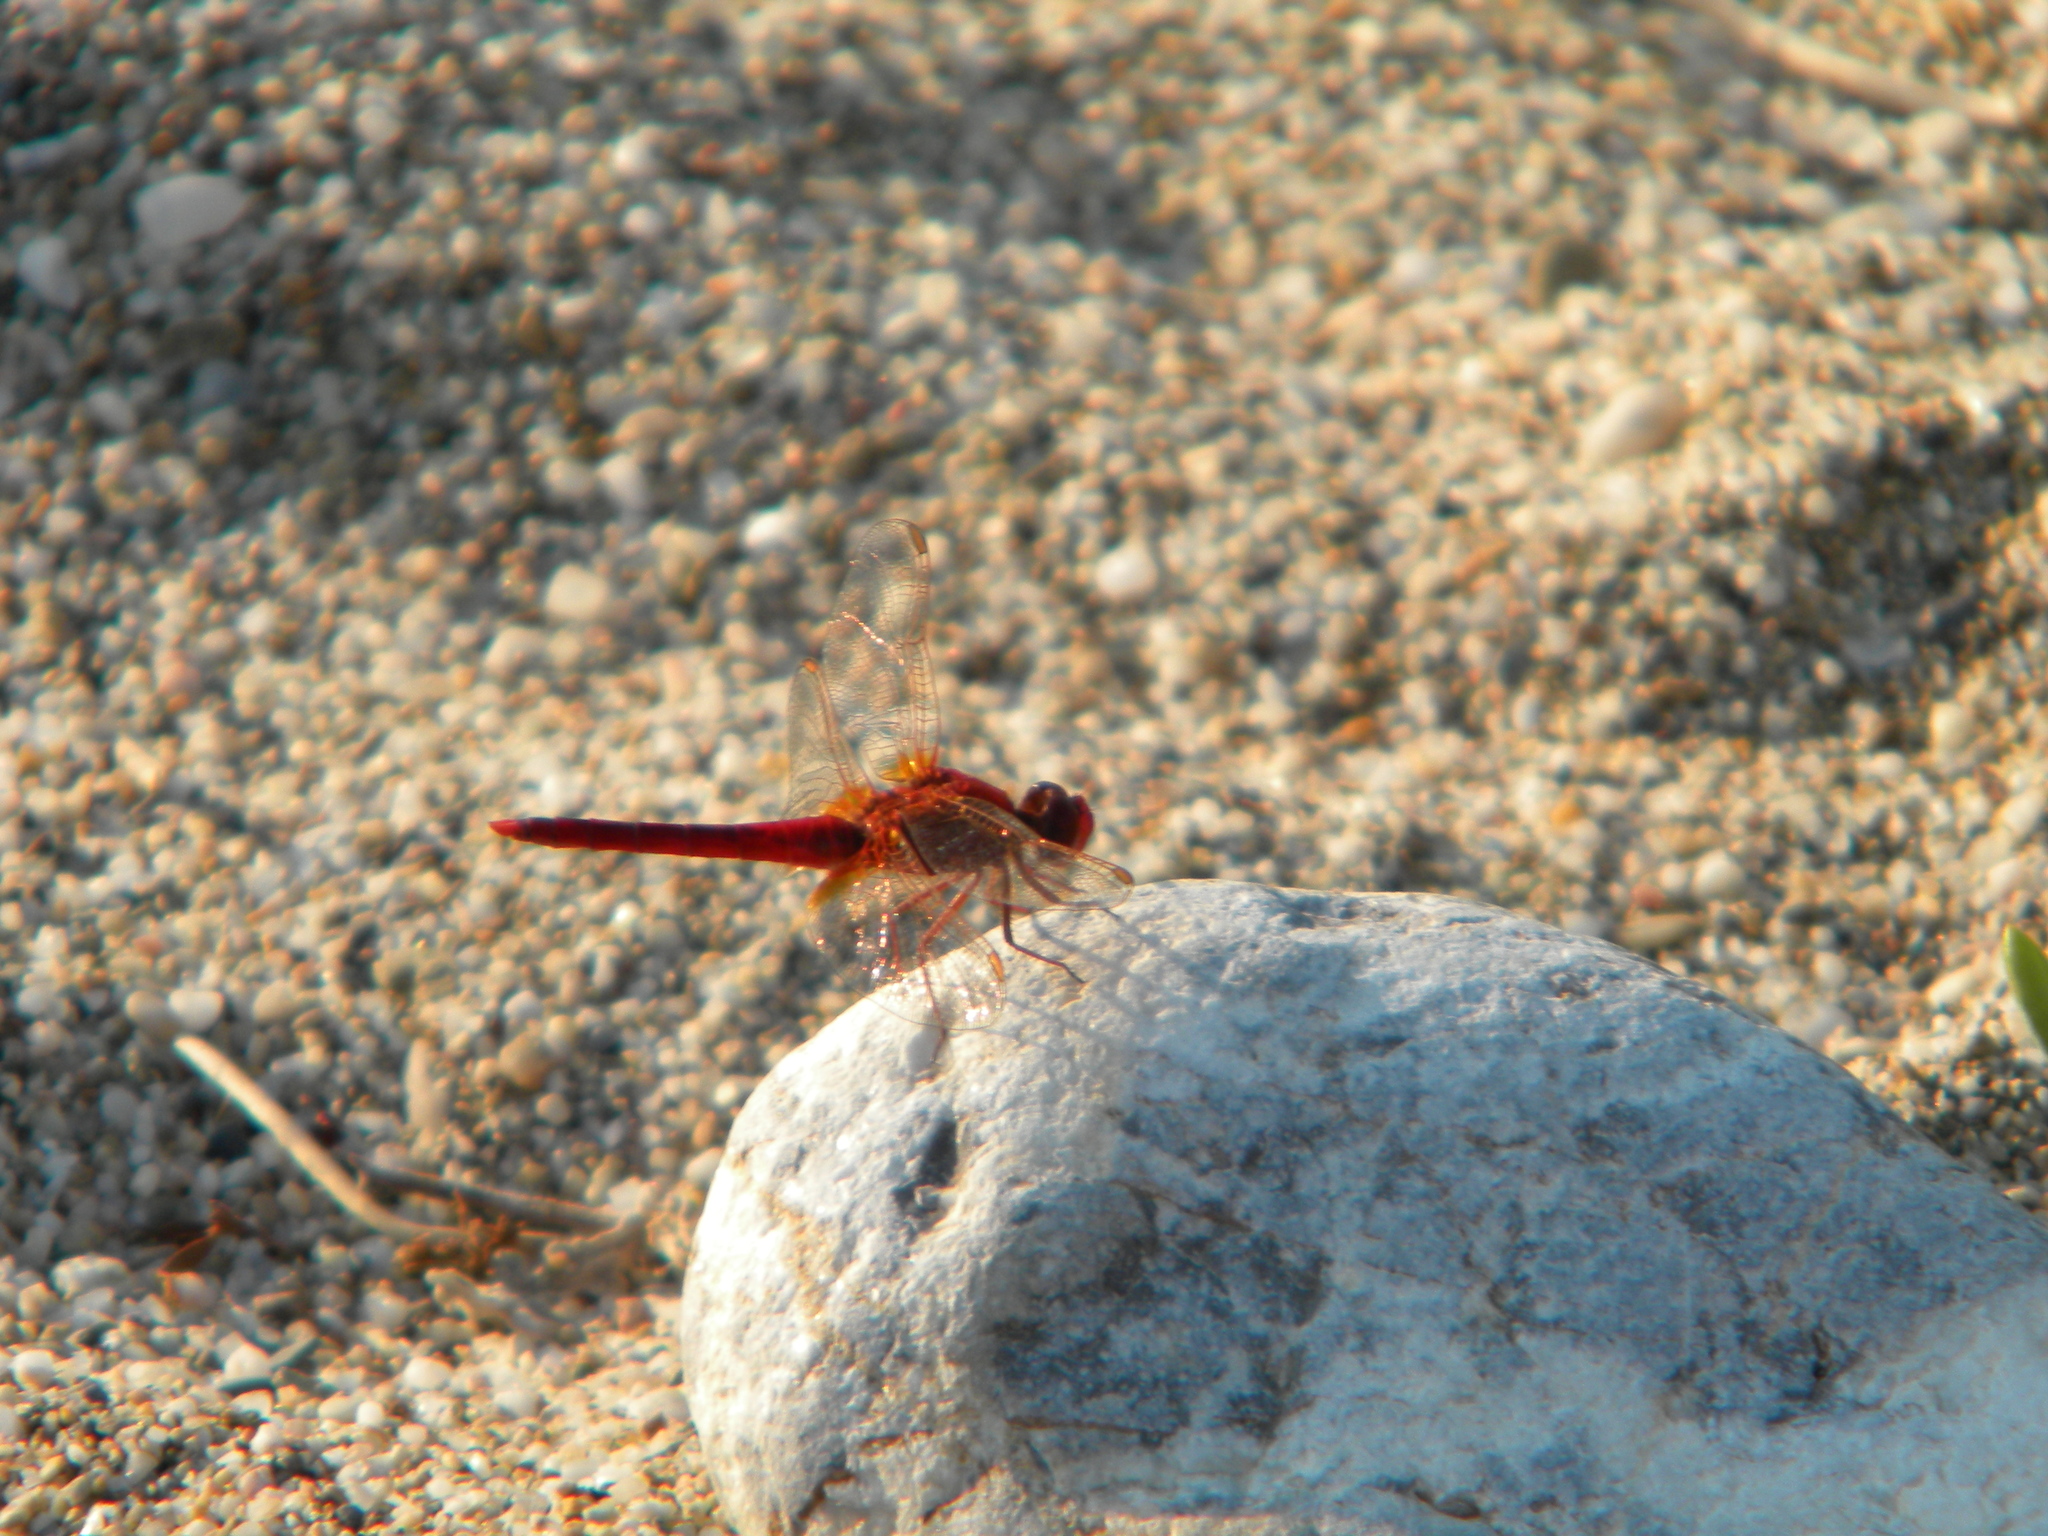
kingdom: Animalia
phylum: Arthropoda
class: Insecta
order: Odonata
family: Libellulidae
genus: Crocothemis
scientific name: Crocothemis erythraea
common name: Scarlet dragonfly
